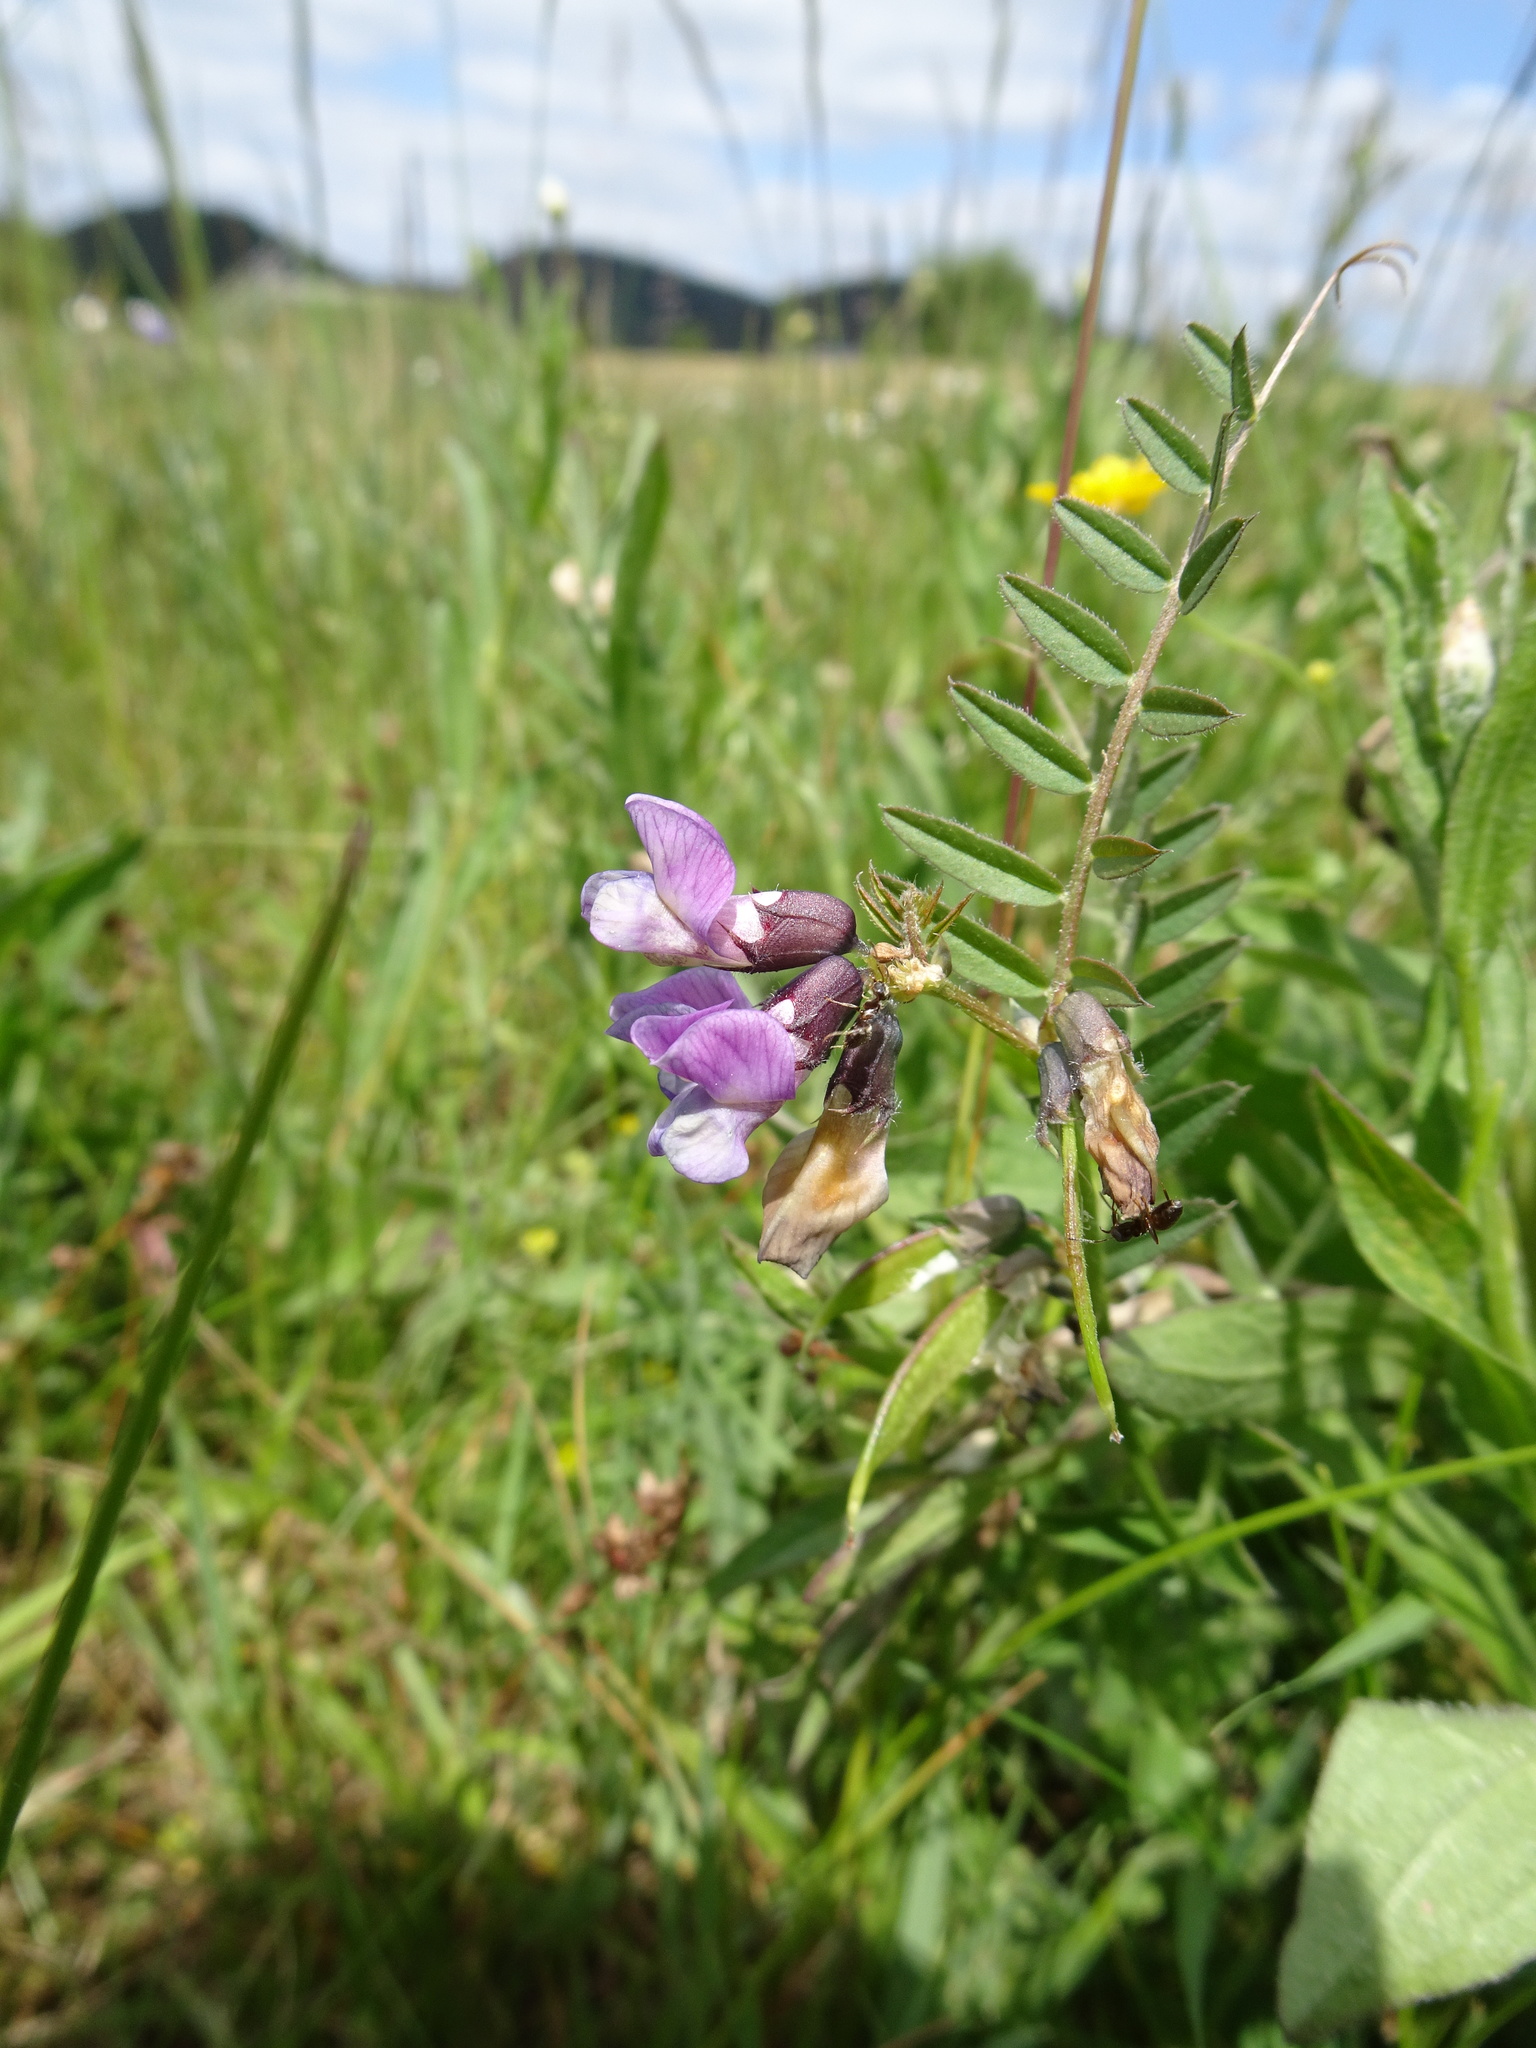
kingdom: Plantae
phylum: Tracheophyta
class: Magnoliopsida
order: Fabales
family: Fabaceae
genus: Vicia
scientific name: Vicia sepium
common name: Bush vetch
